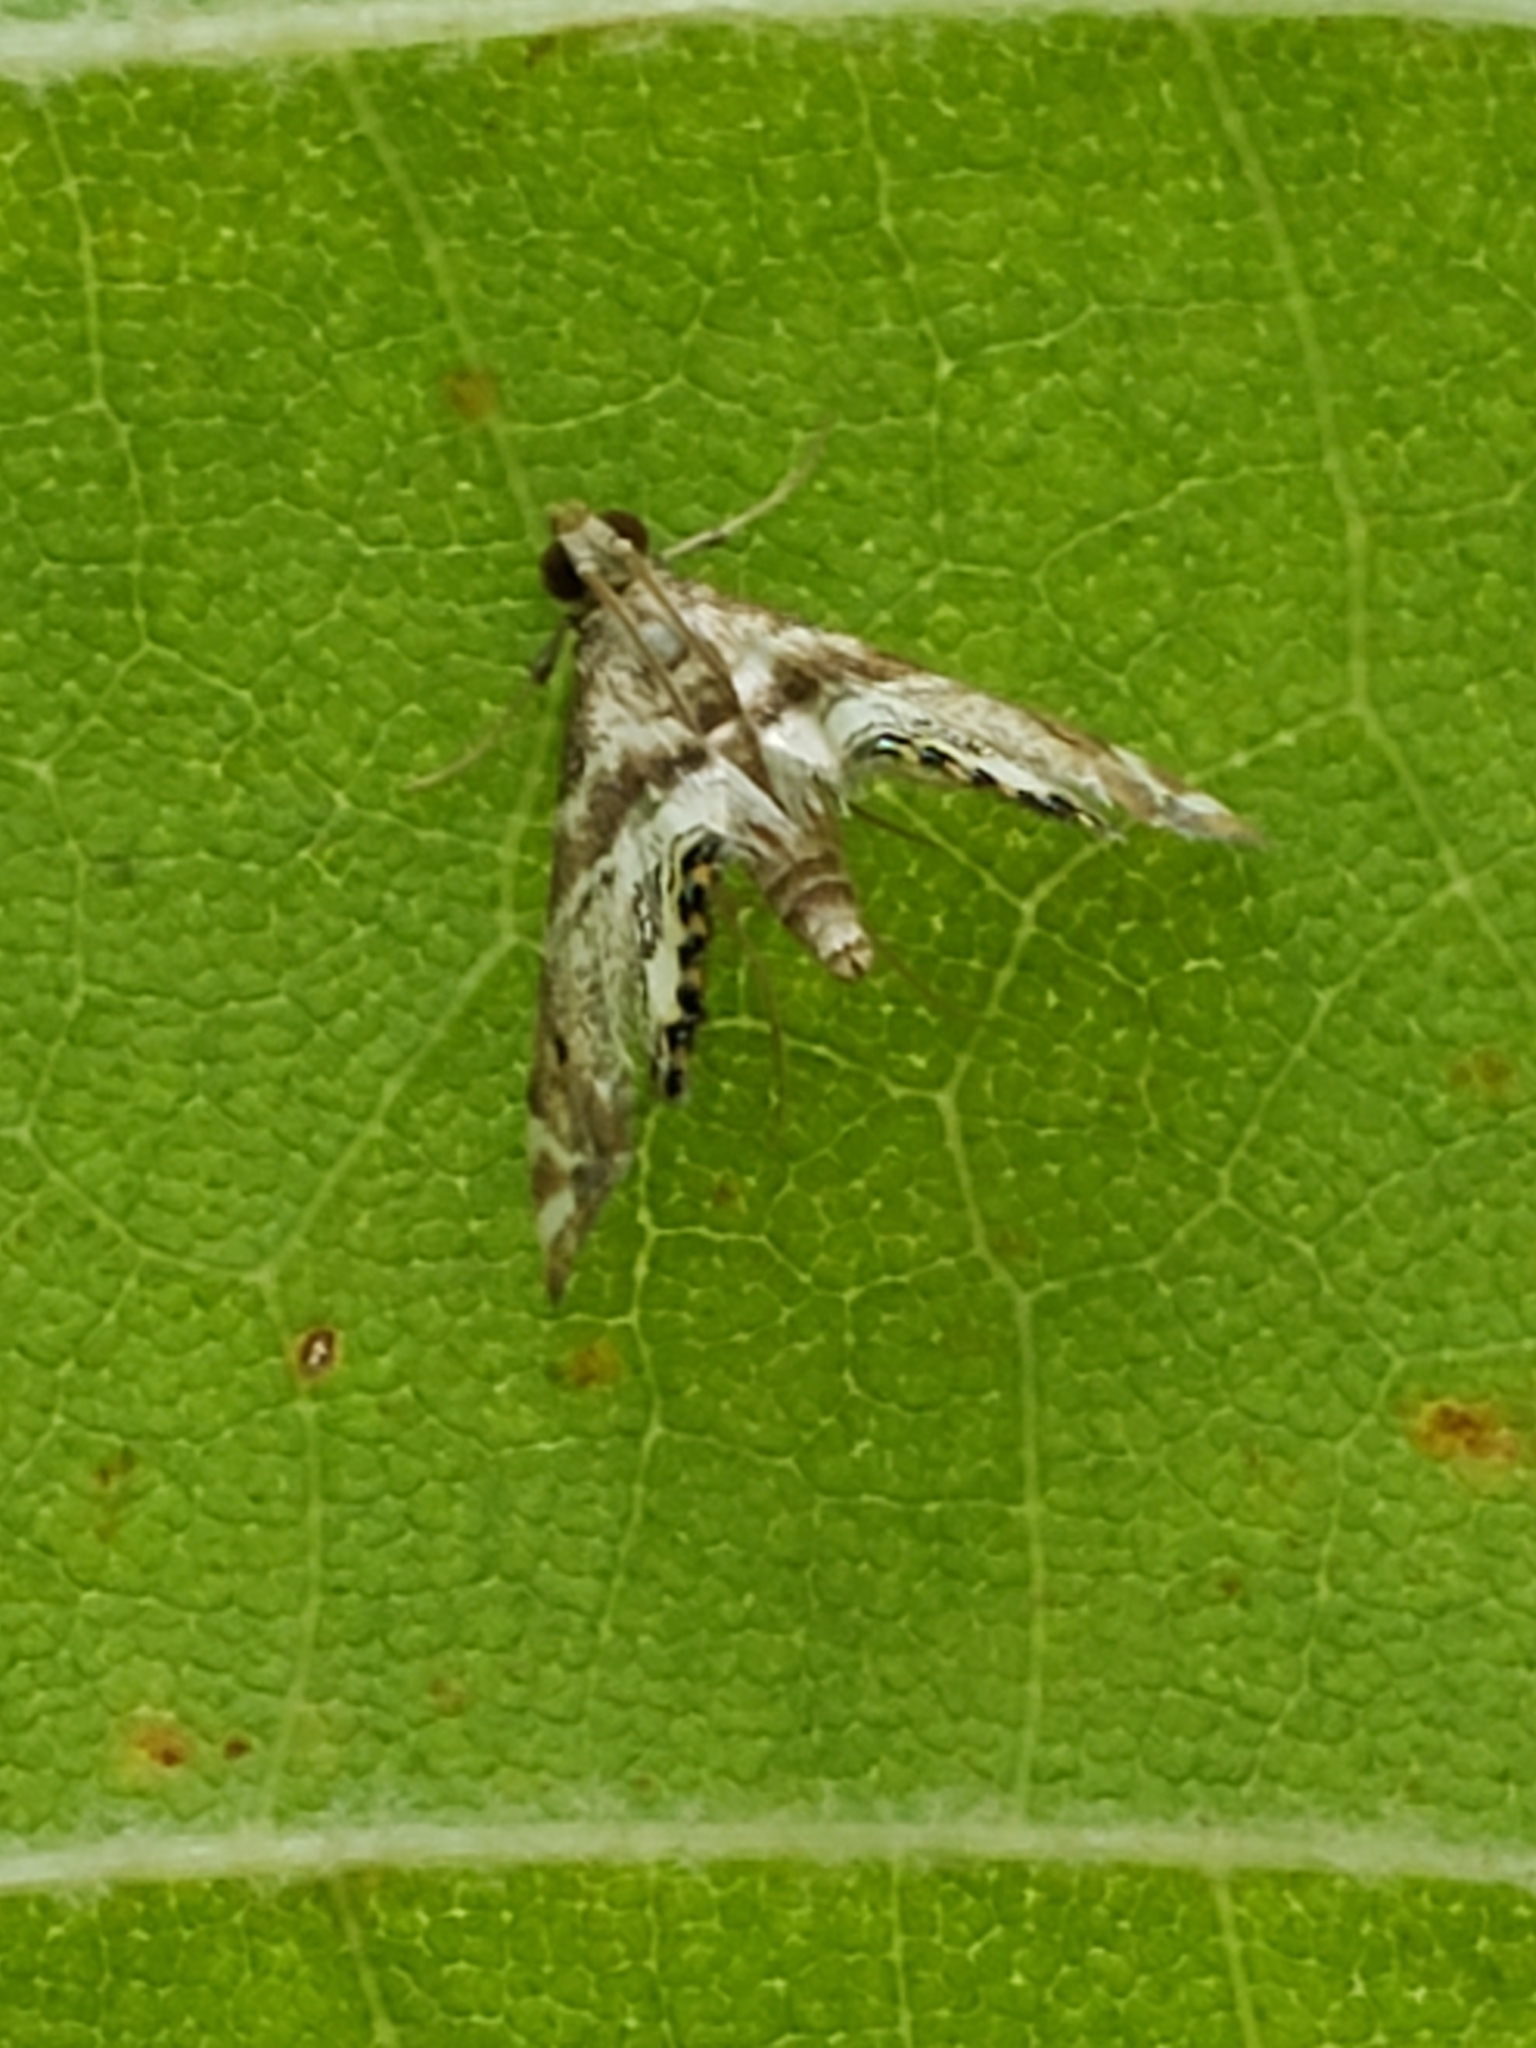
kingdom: Animalia
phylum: Arthropoda
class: Insecta
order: Lepidoptera
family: Crambidae
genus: Petrophila
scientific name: Petrophila fulicalis
